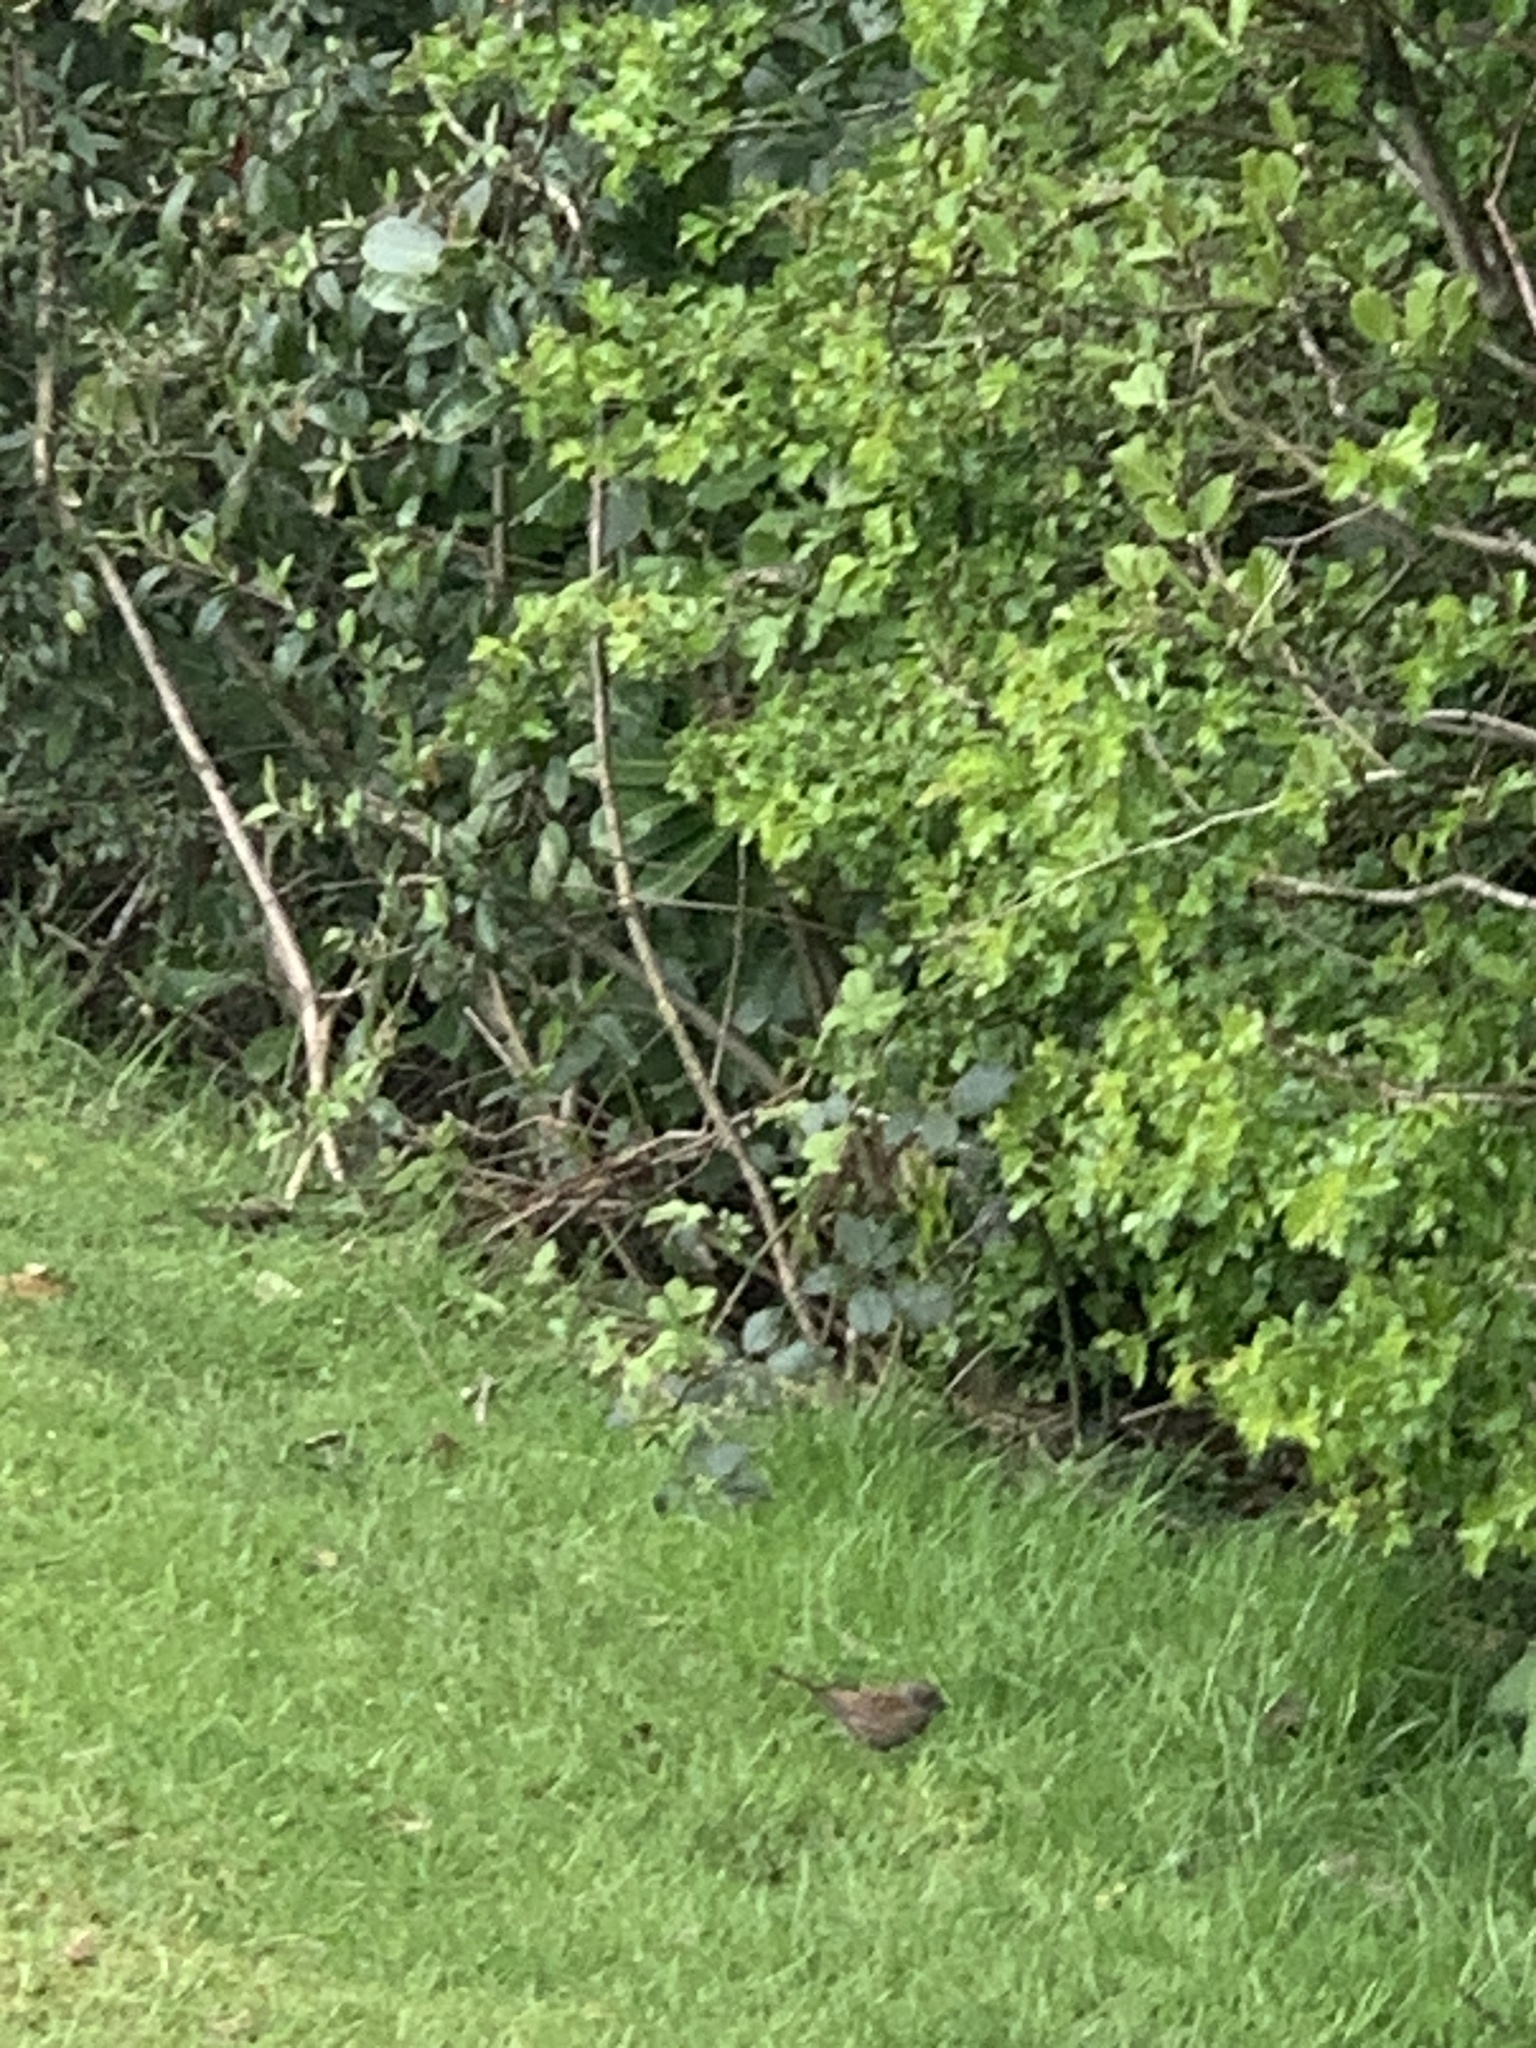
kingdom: Animalia
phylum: Chordata
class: Aves
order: Passeriformes
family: Prunellidae
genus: Prunella
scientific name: Prunella modularis
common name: Dunnock
